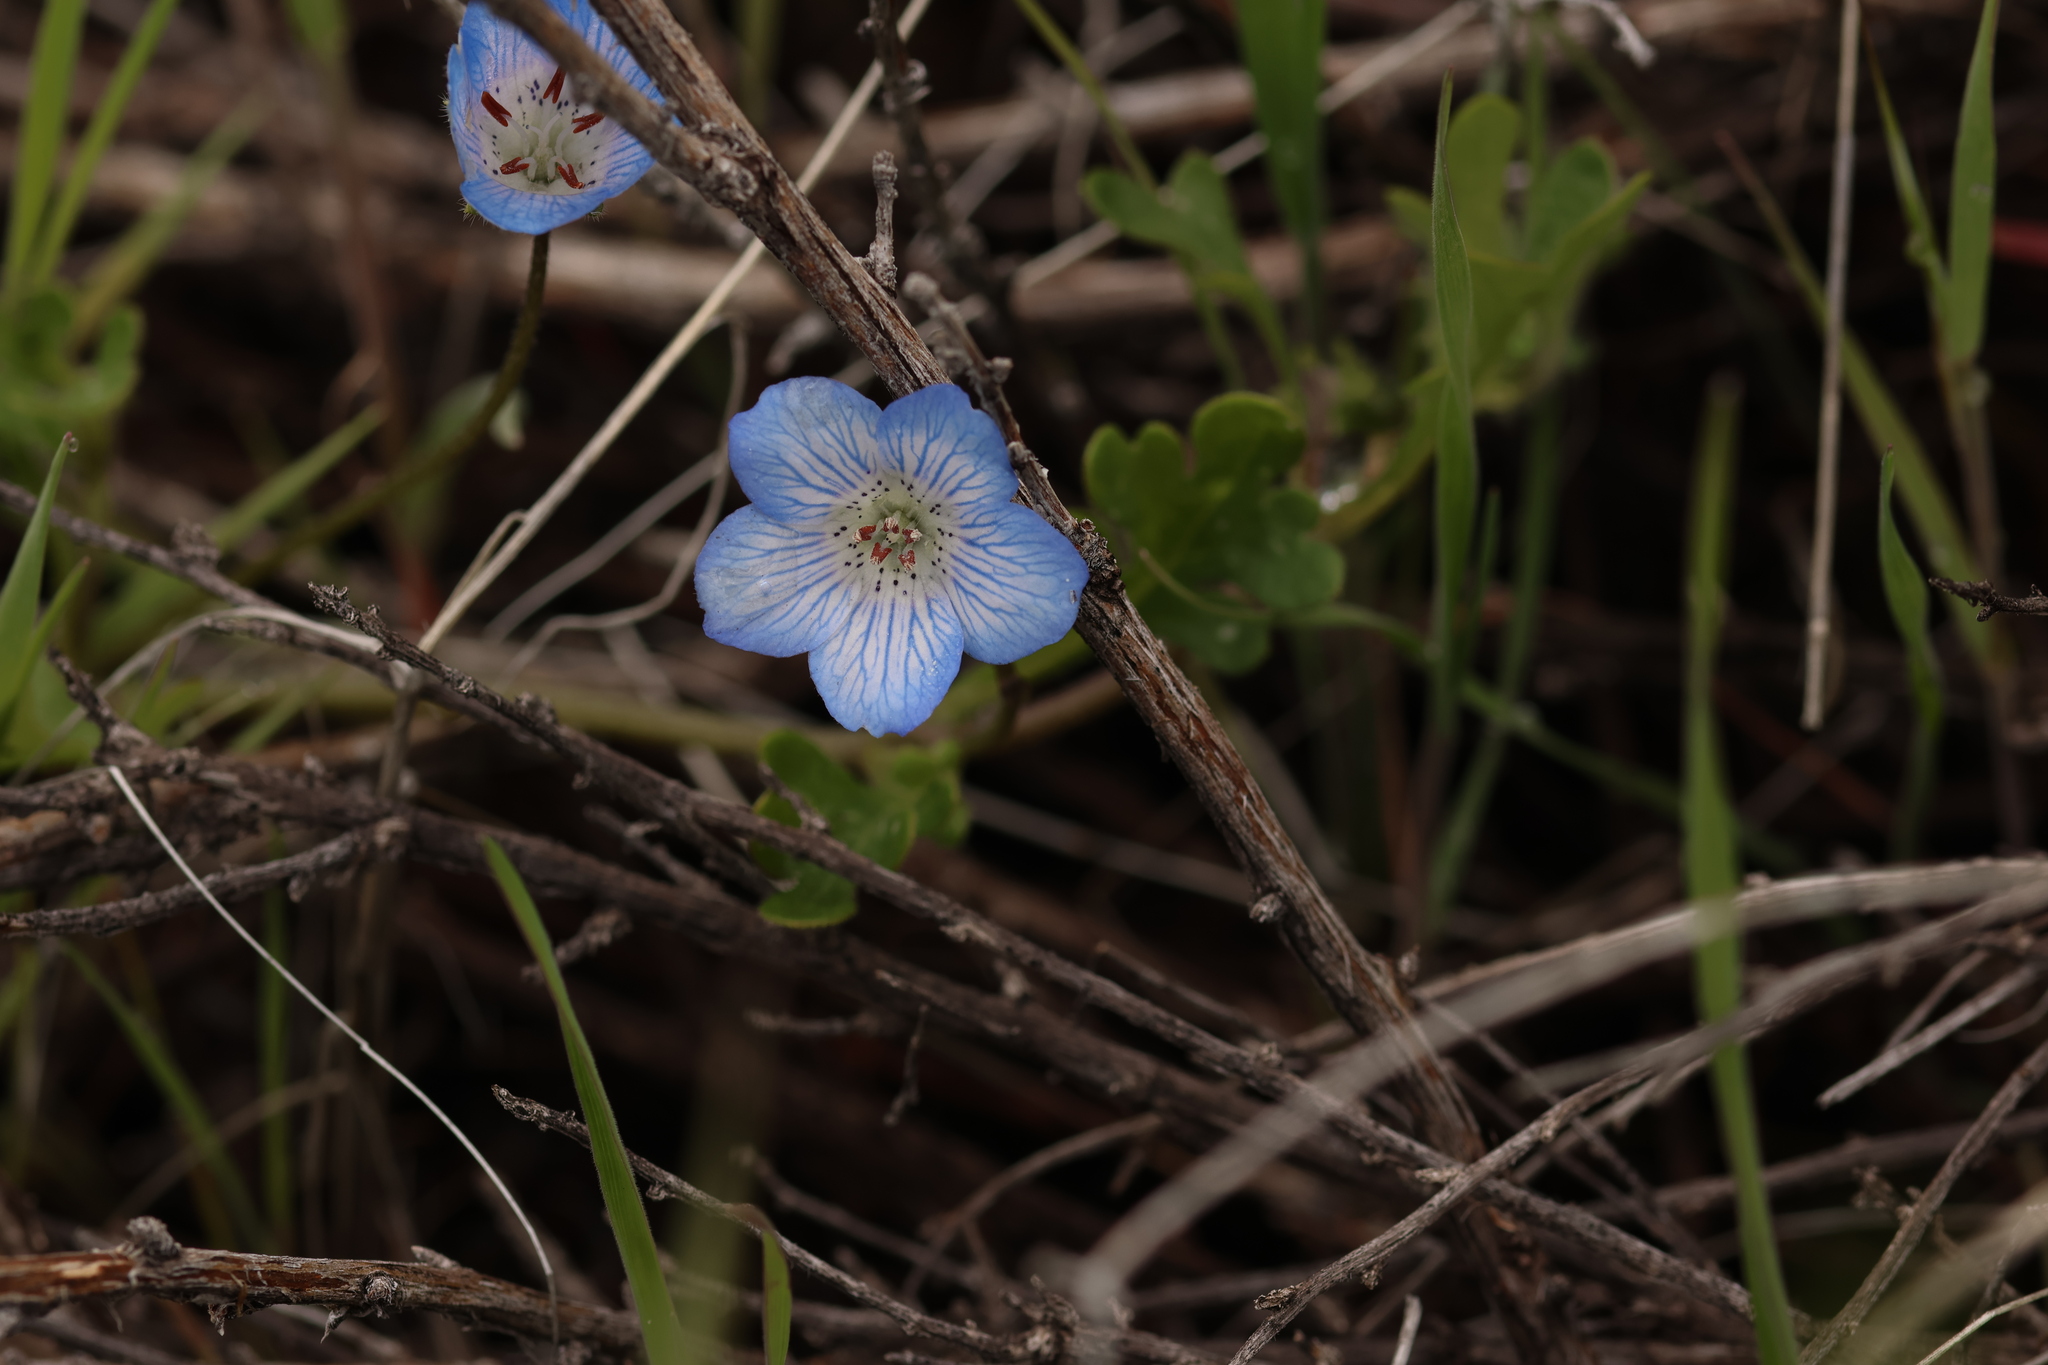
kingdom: Plantae
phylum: Tracheophyta
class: Magnoliopsida
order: Boraginales
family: Hydrophyllaceae
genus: Nemophila
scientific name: Nemophila menziesii
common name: Baby's-blue-eyes
